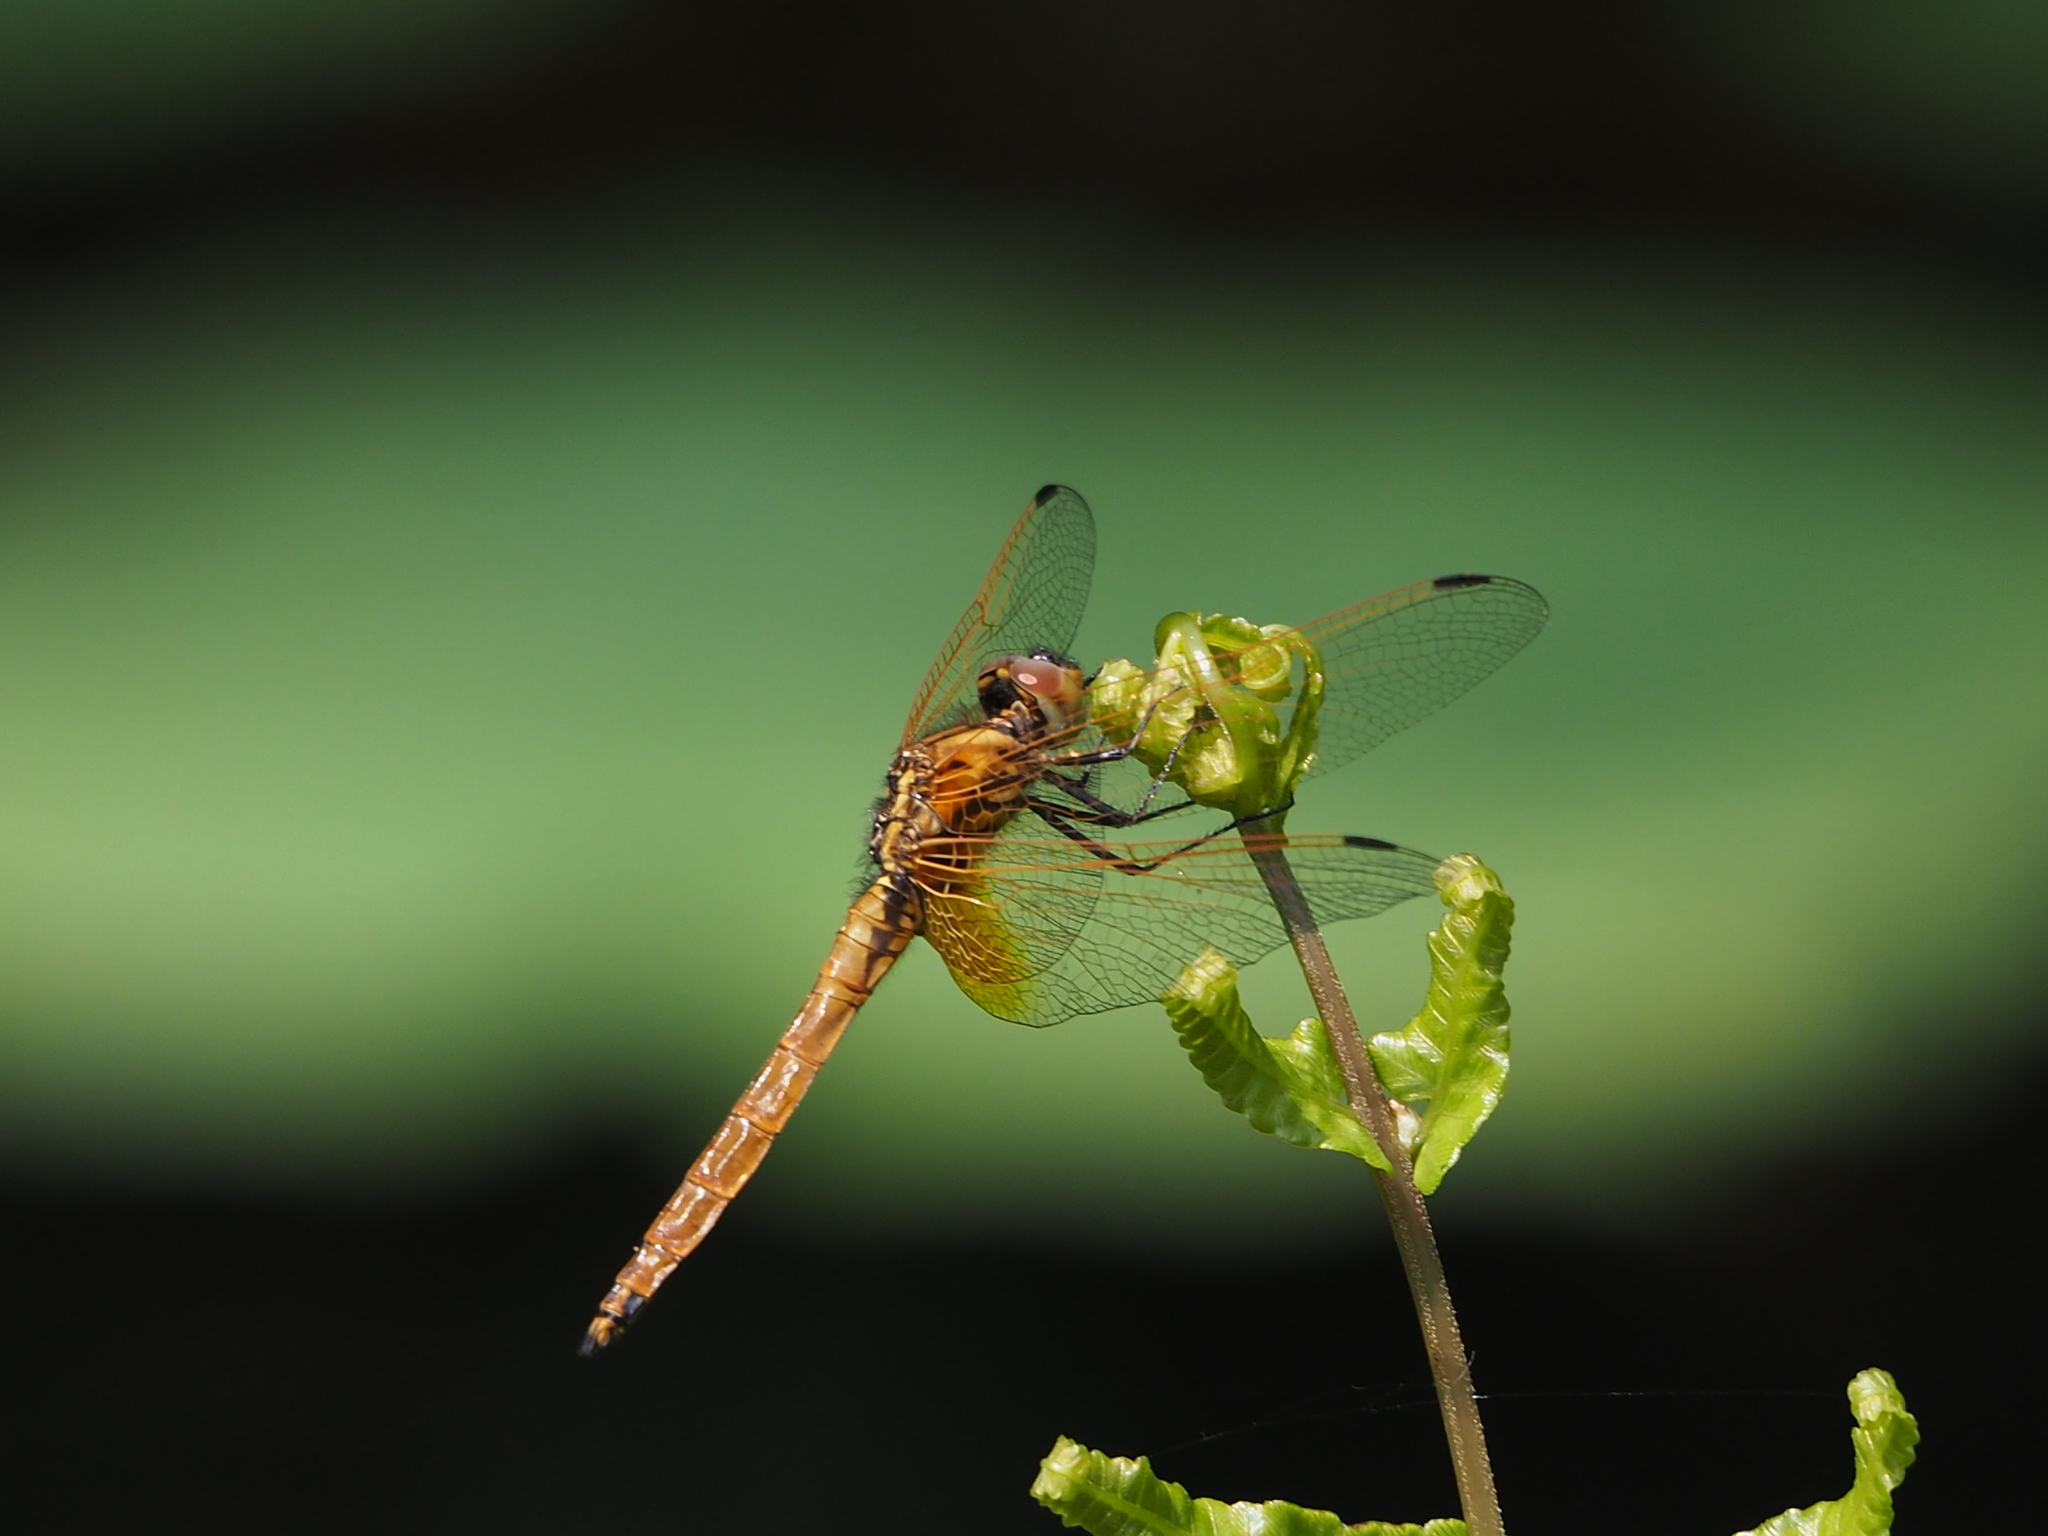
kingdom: Animalia
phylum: Arthropoda
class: Insecta
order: Odonata
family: Libellulidae
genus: Trithemis
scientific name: Trithemis aurora
